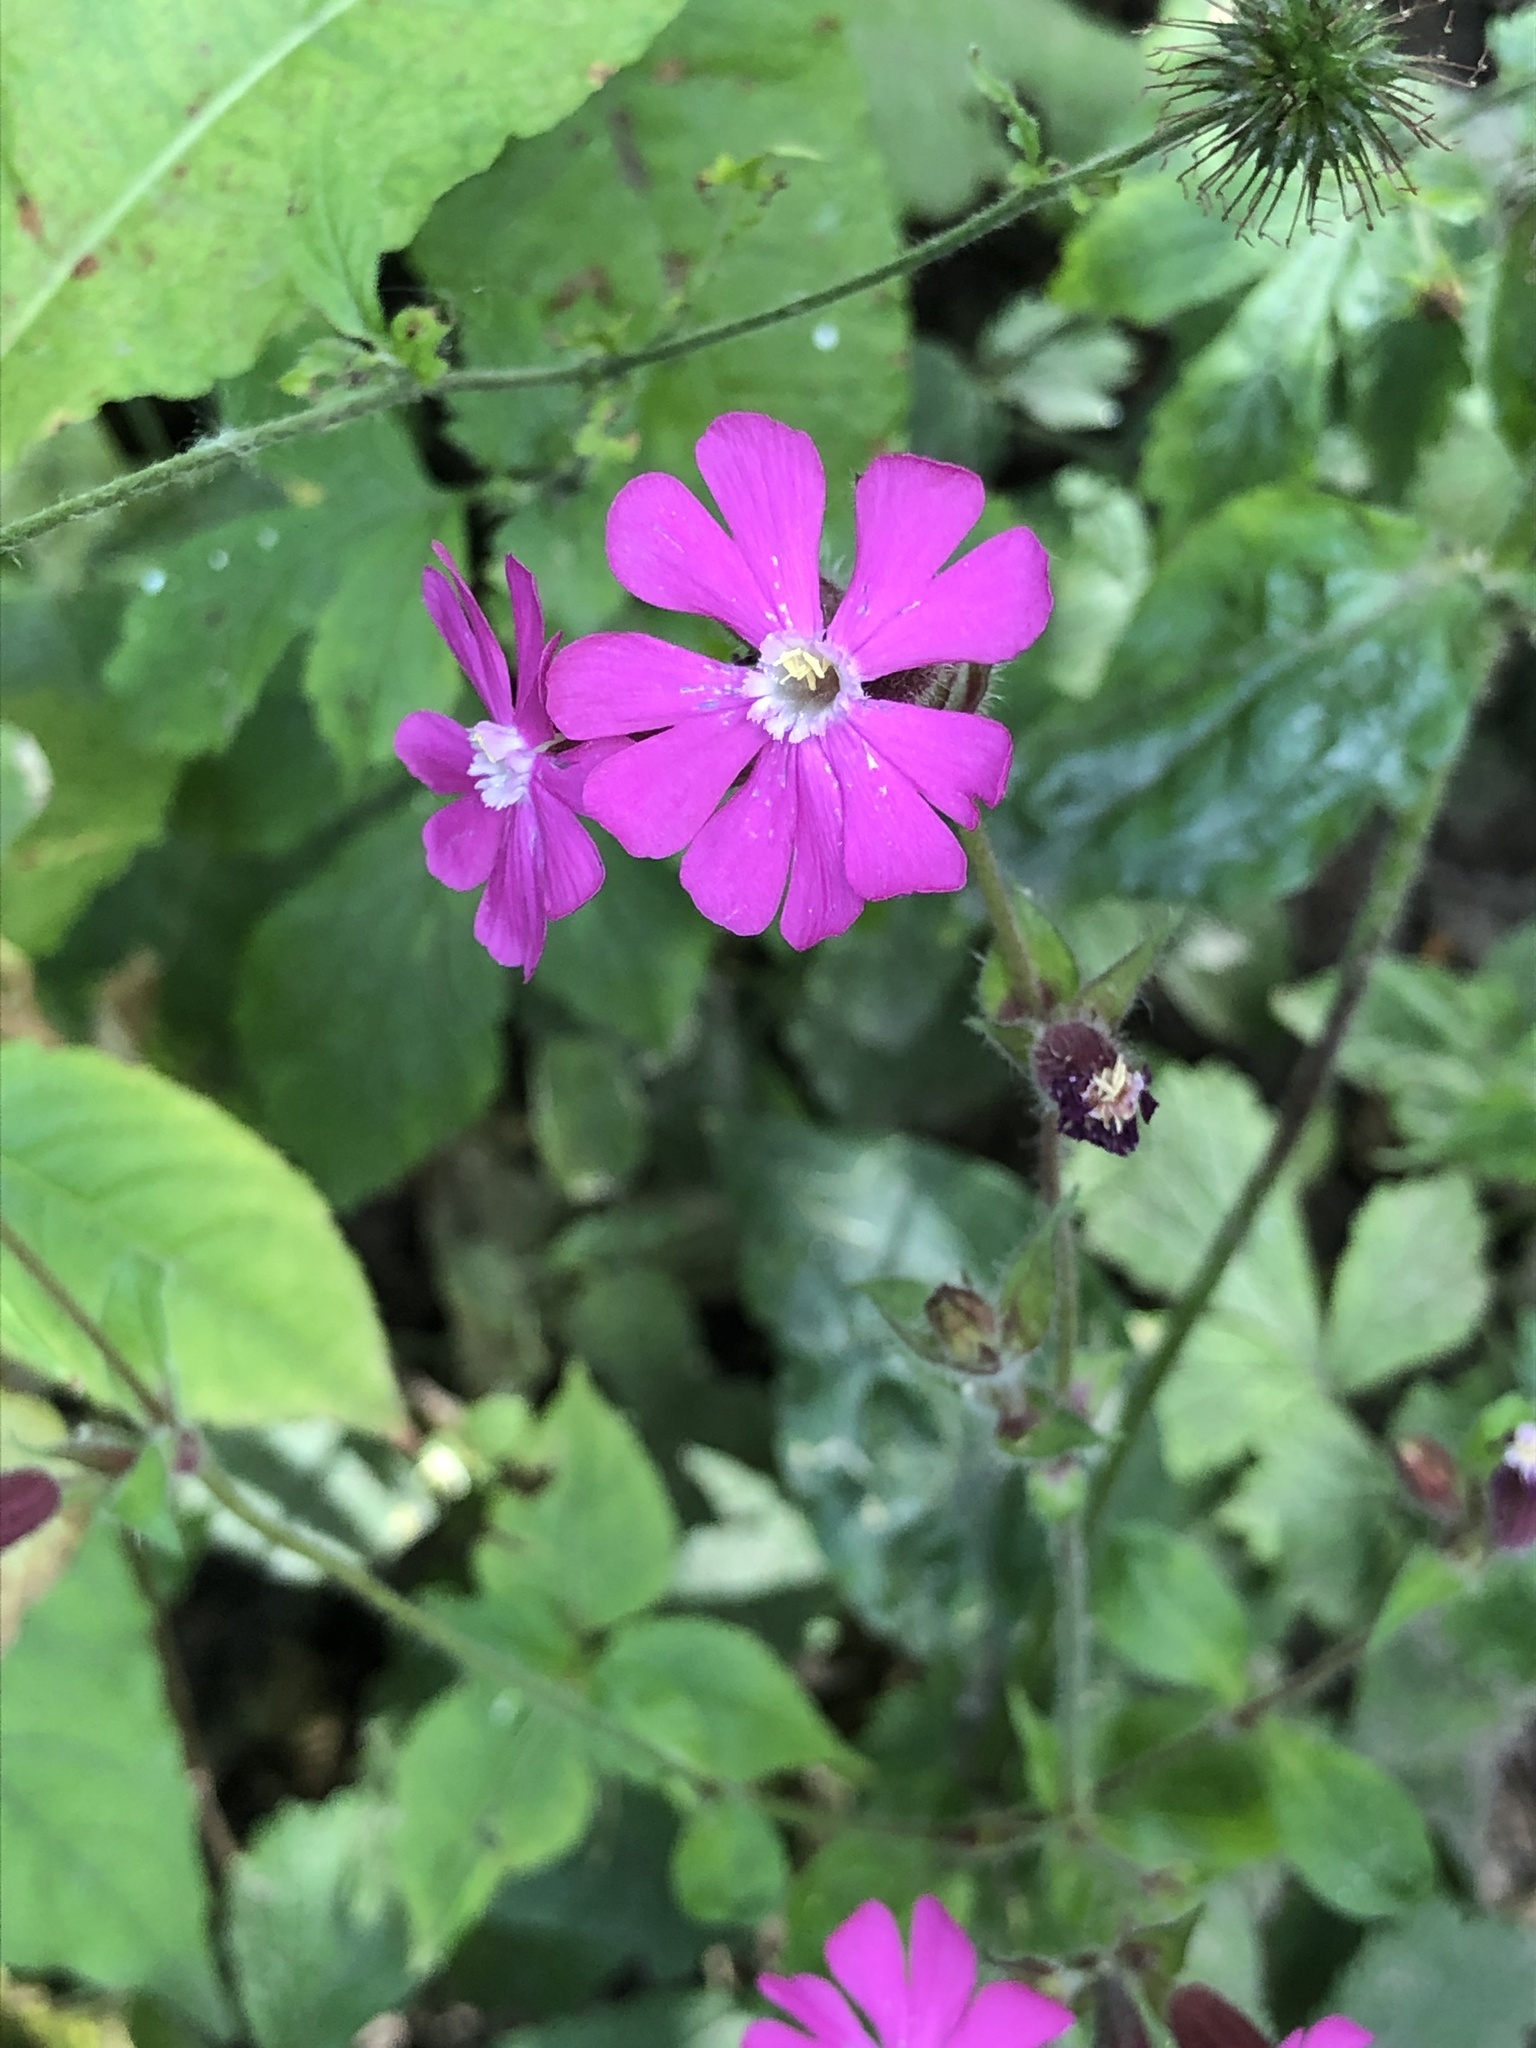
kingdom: Plantae
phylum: Tracheophyta
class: Magnoliopsida
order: Caryophyllales
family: Caryophyllaceae
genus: Silene
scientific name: Silene dioica
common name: Red campion
